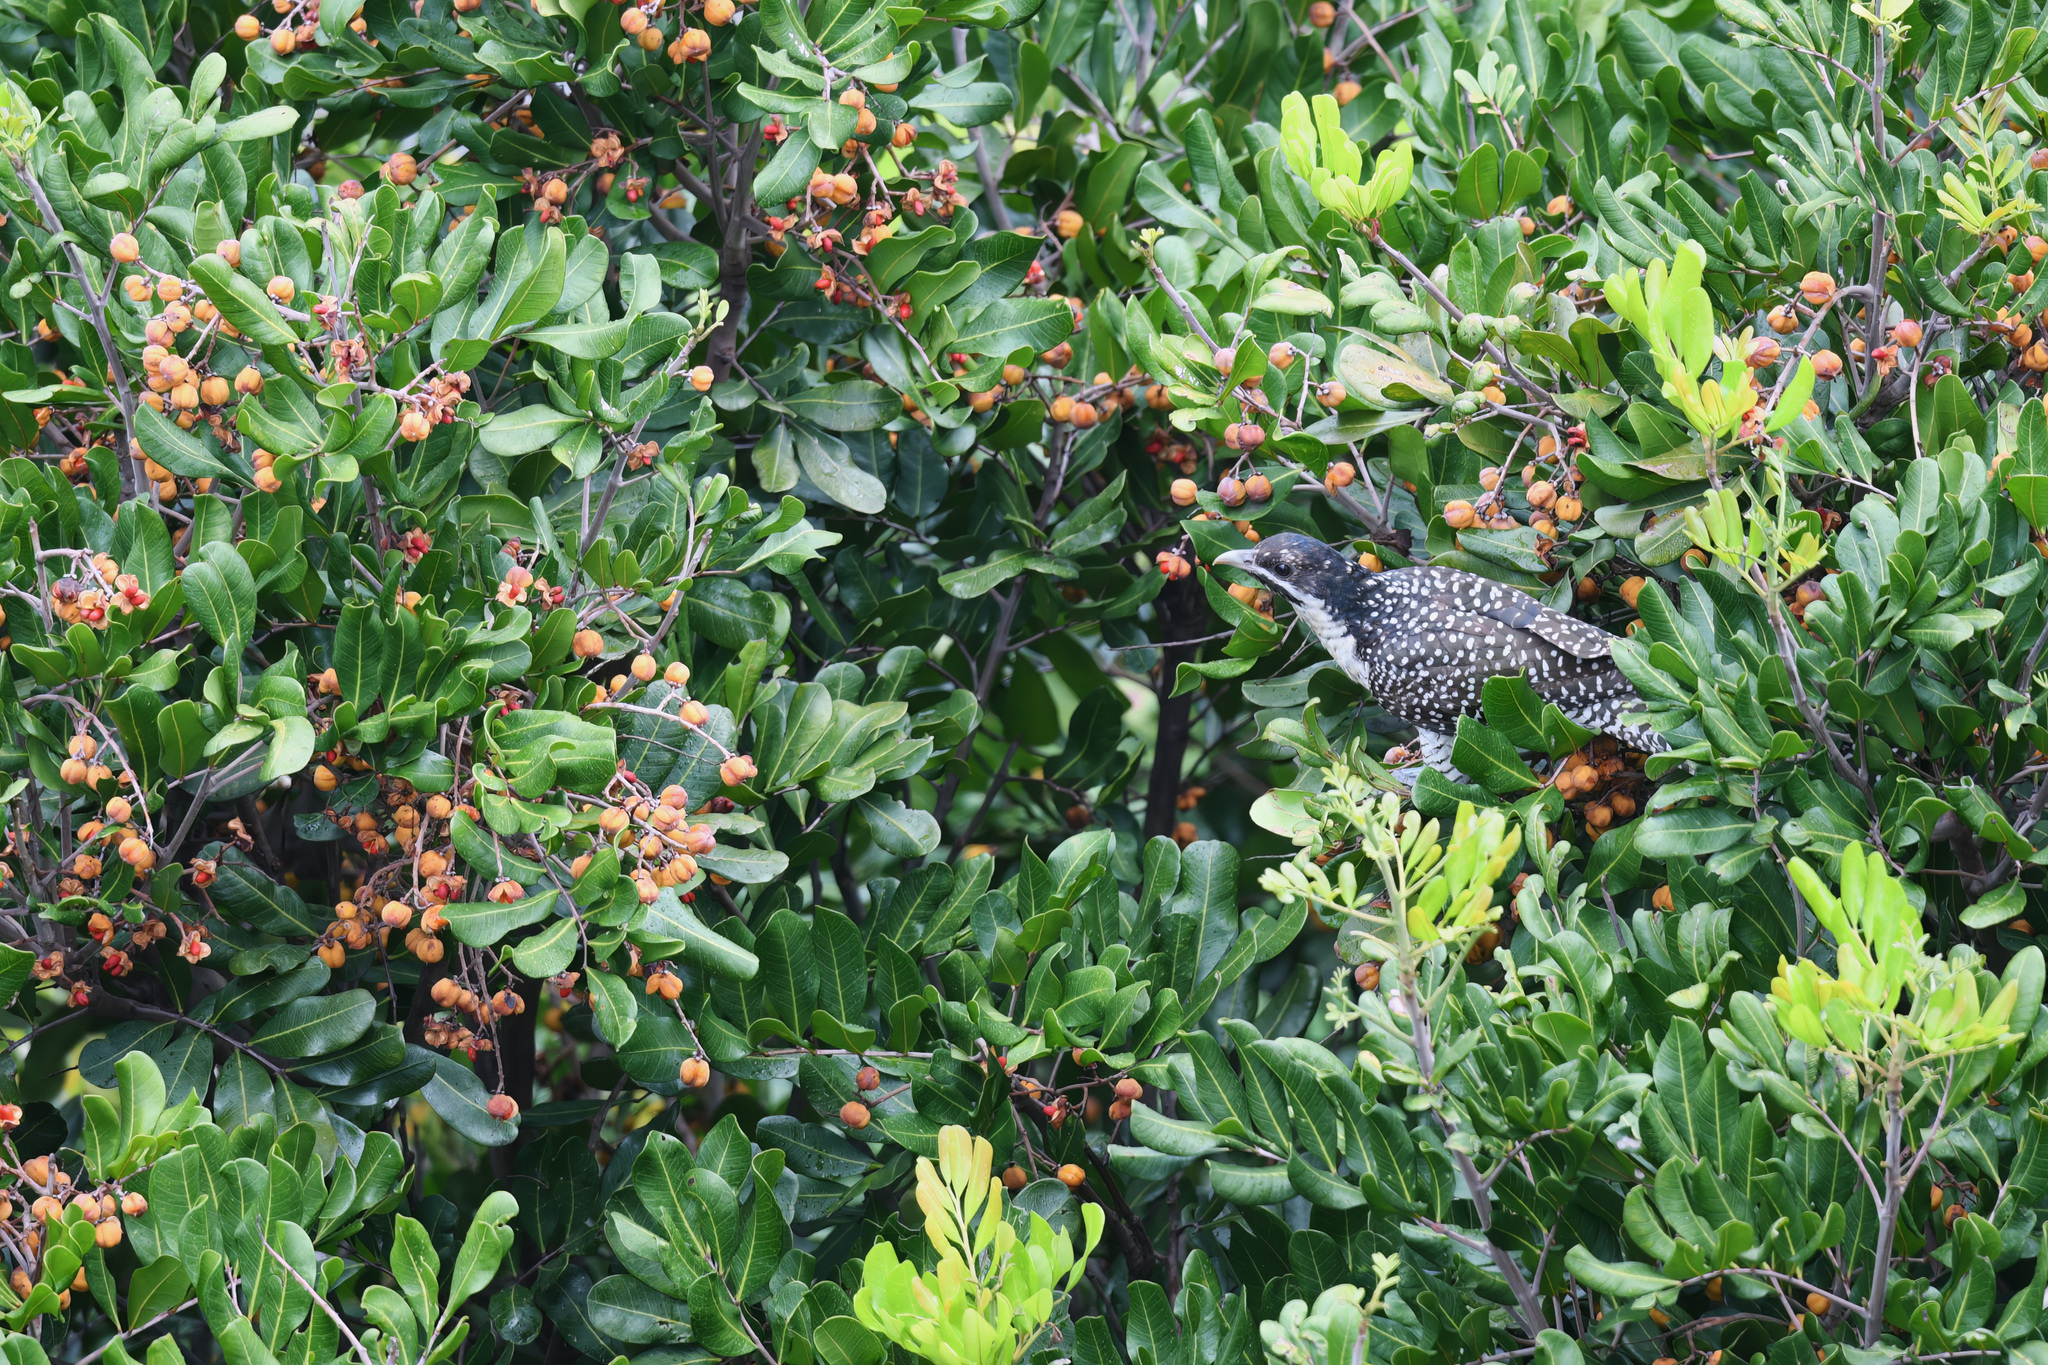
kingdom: Animalia
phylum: Chordata
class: Aves
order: Cuculiformes
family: Cuculidae
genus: Eudynamys
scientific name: Eudynamys orientalis
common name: Pacific koel
